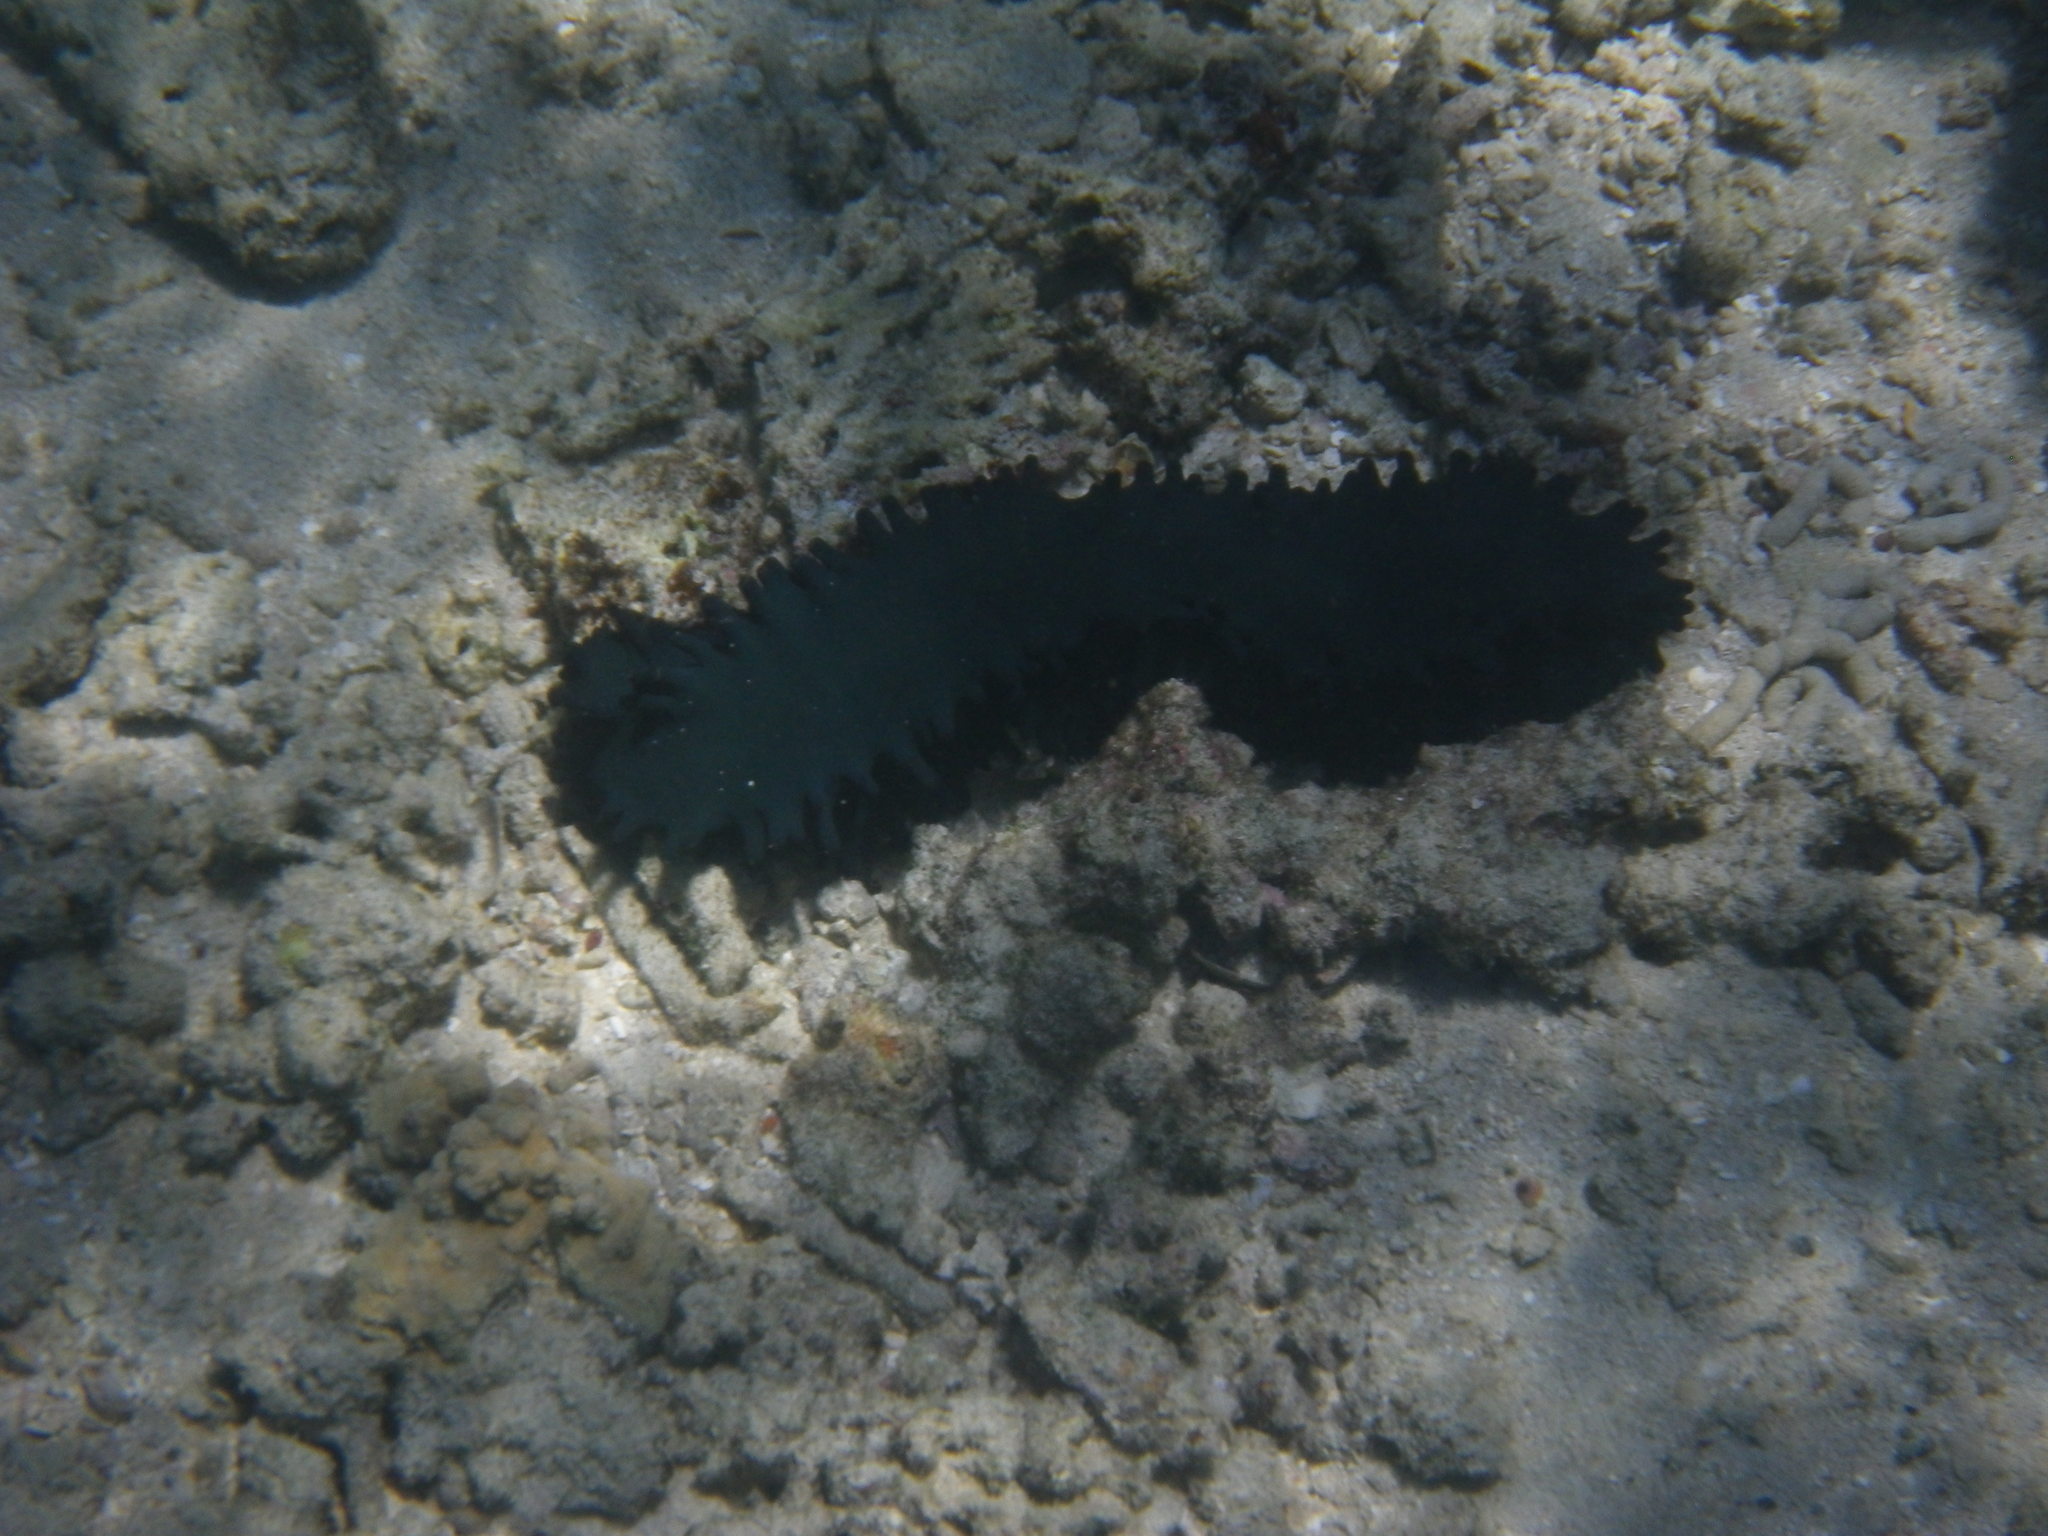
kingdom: Animalia
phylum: Echinodermata
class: Holothuroidea
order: Synallactida
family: Stichopodidae
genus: Stichopus
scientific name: Stichopus chloronotus
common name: Greenfish
